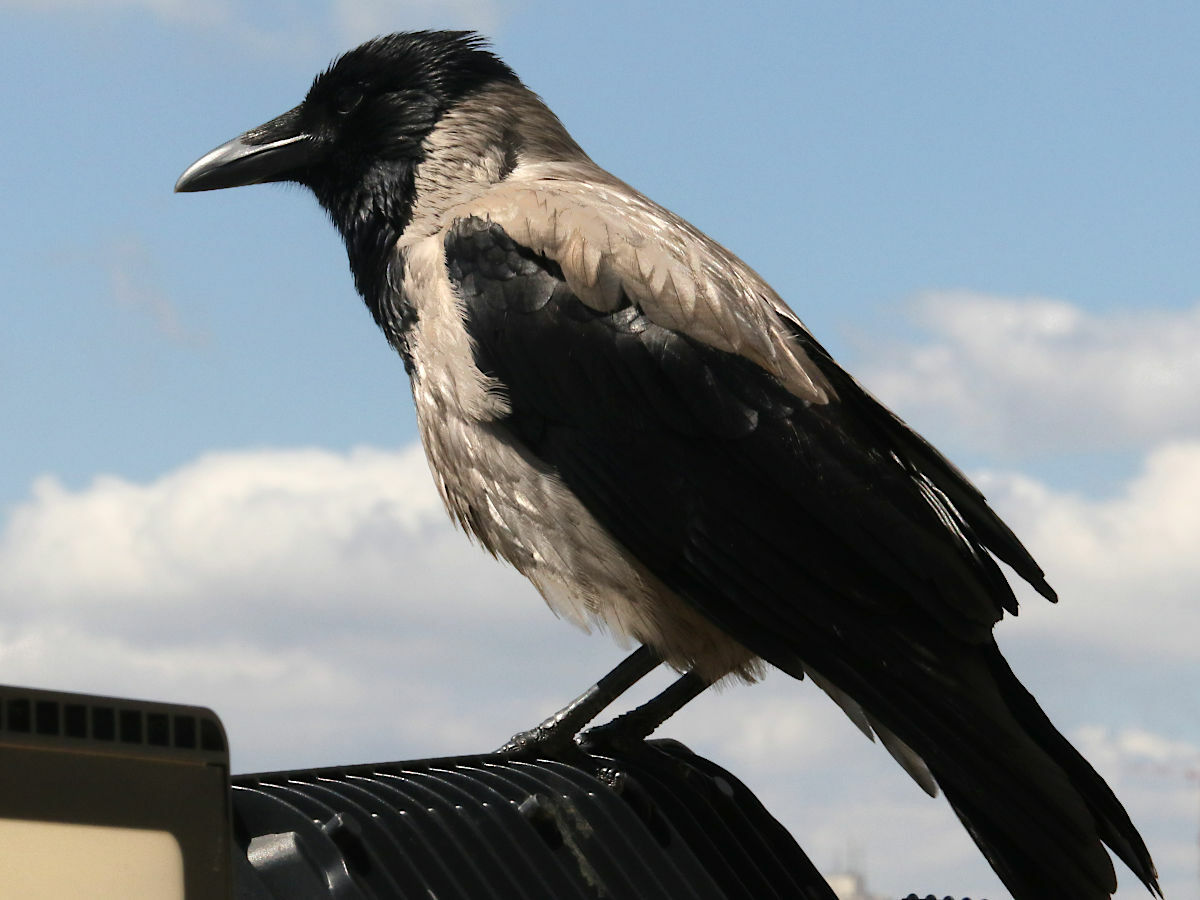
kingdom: Animalia
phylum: Chordata
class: Aves
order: Passeriformes
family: Corvidae
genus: Corvus
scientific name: Corvus cornix
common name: Hooded crow
